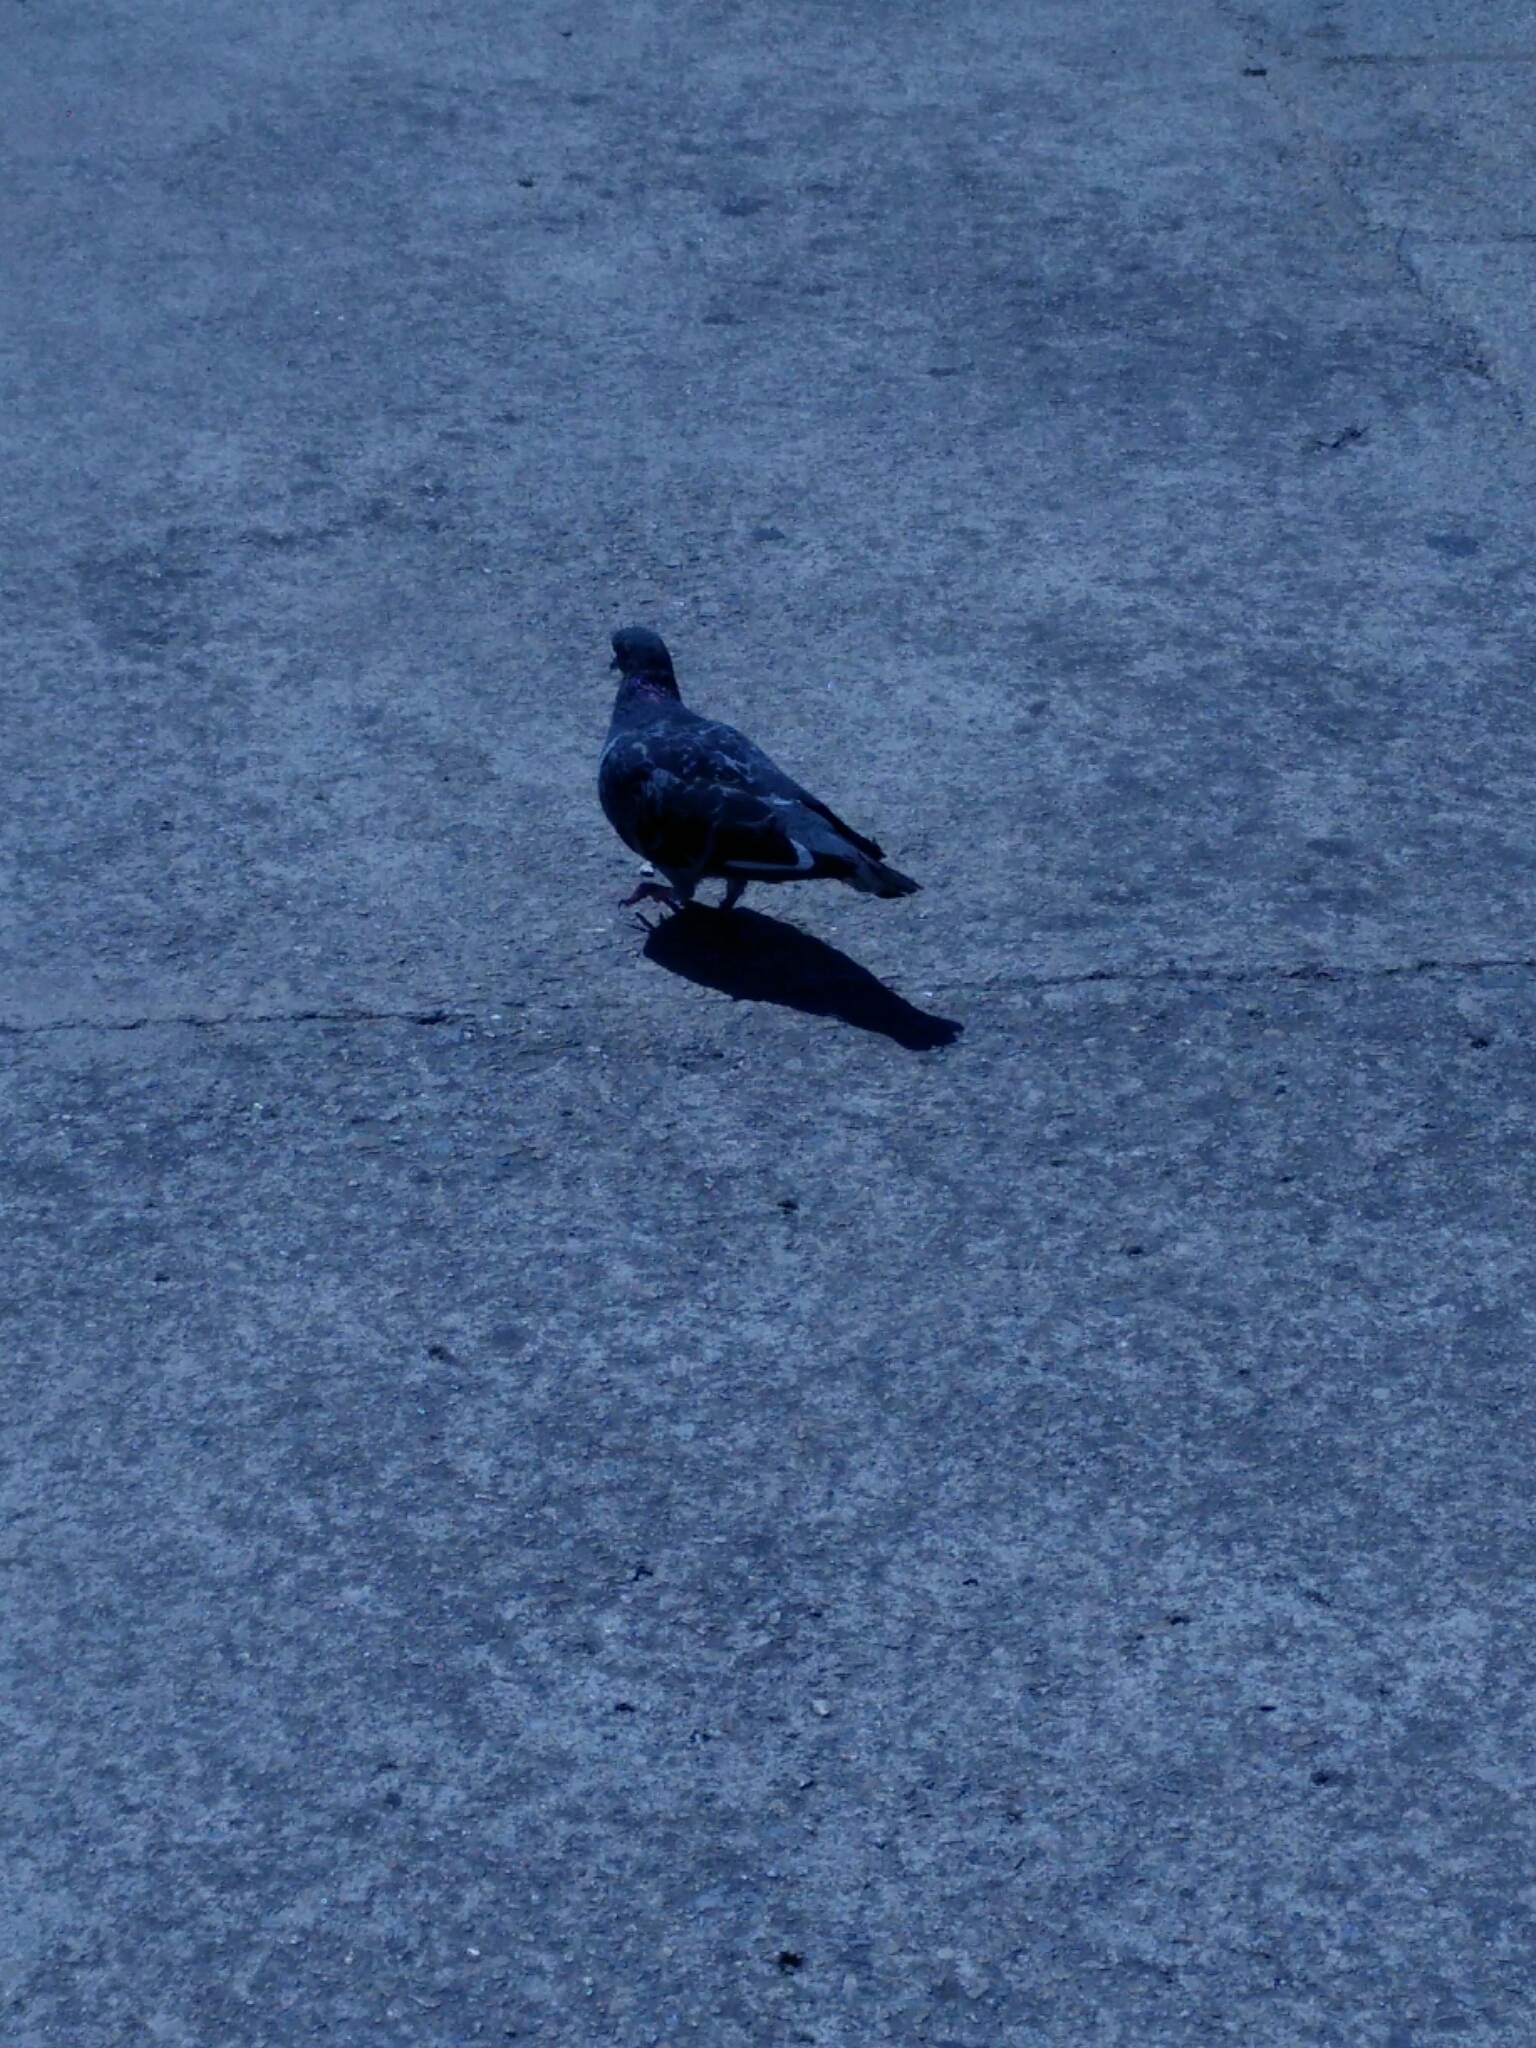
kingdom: Animalia
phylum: Chordata
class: Aves
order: Columbiformes
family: Columbidae
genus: Columba
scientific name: Columba livia
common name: Rock pigeon
